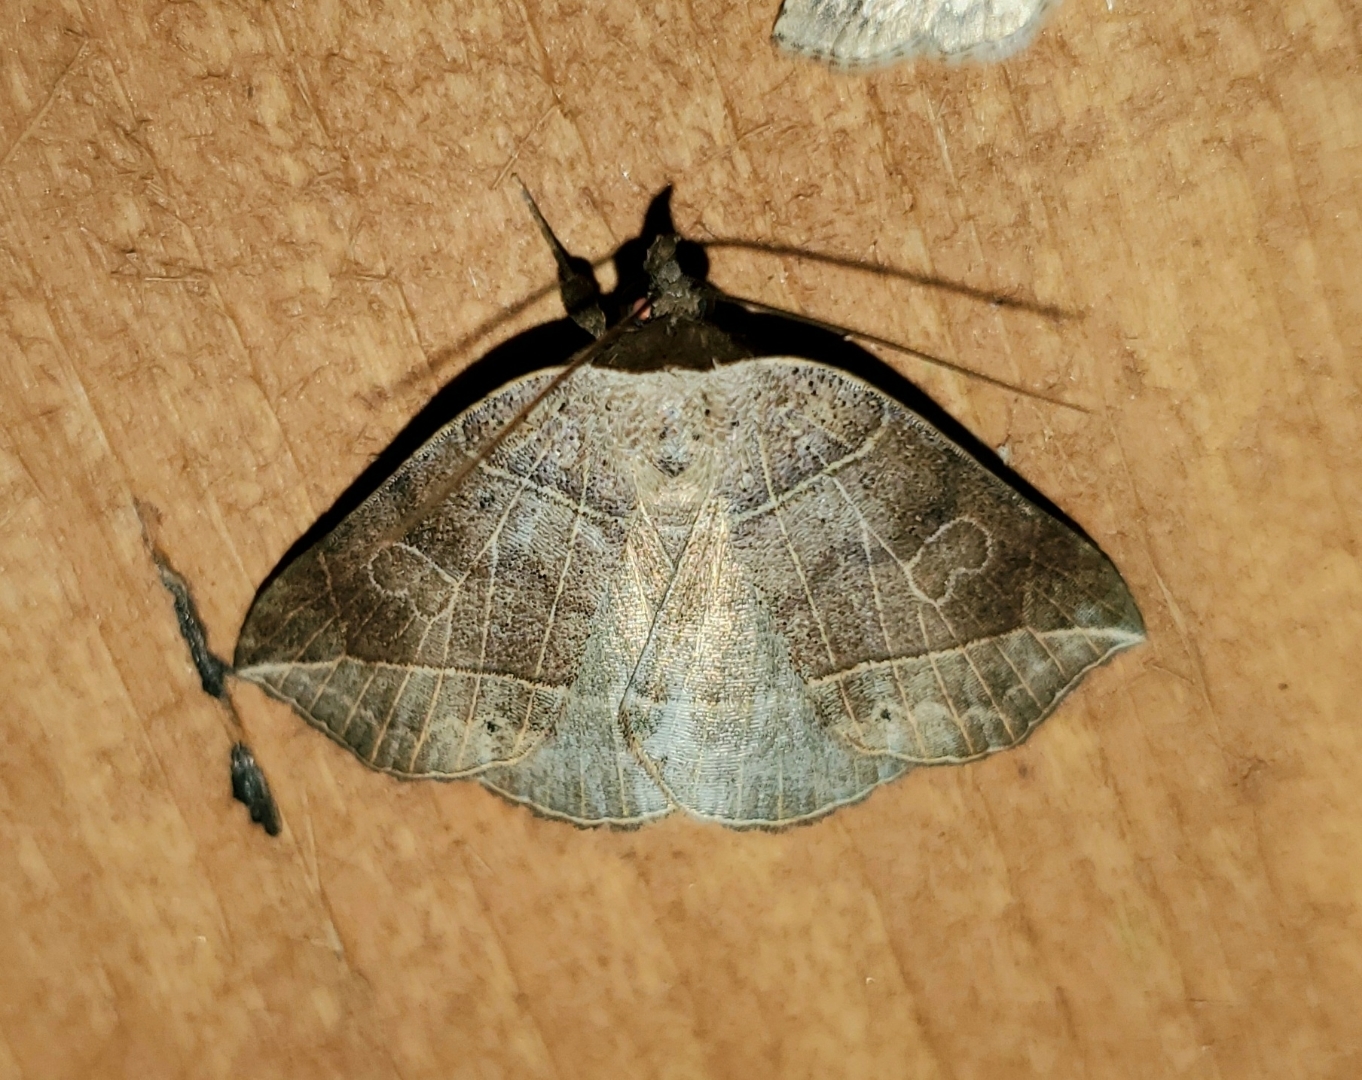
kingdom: Animalia
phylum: Arthropoda
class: Insecta
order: Lepidoptera
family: Erebidae
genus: Isogona
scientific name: Isogona tenuis
